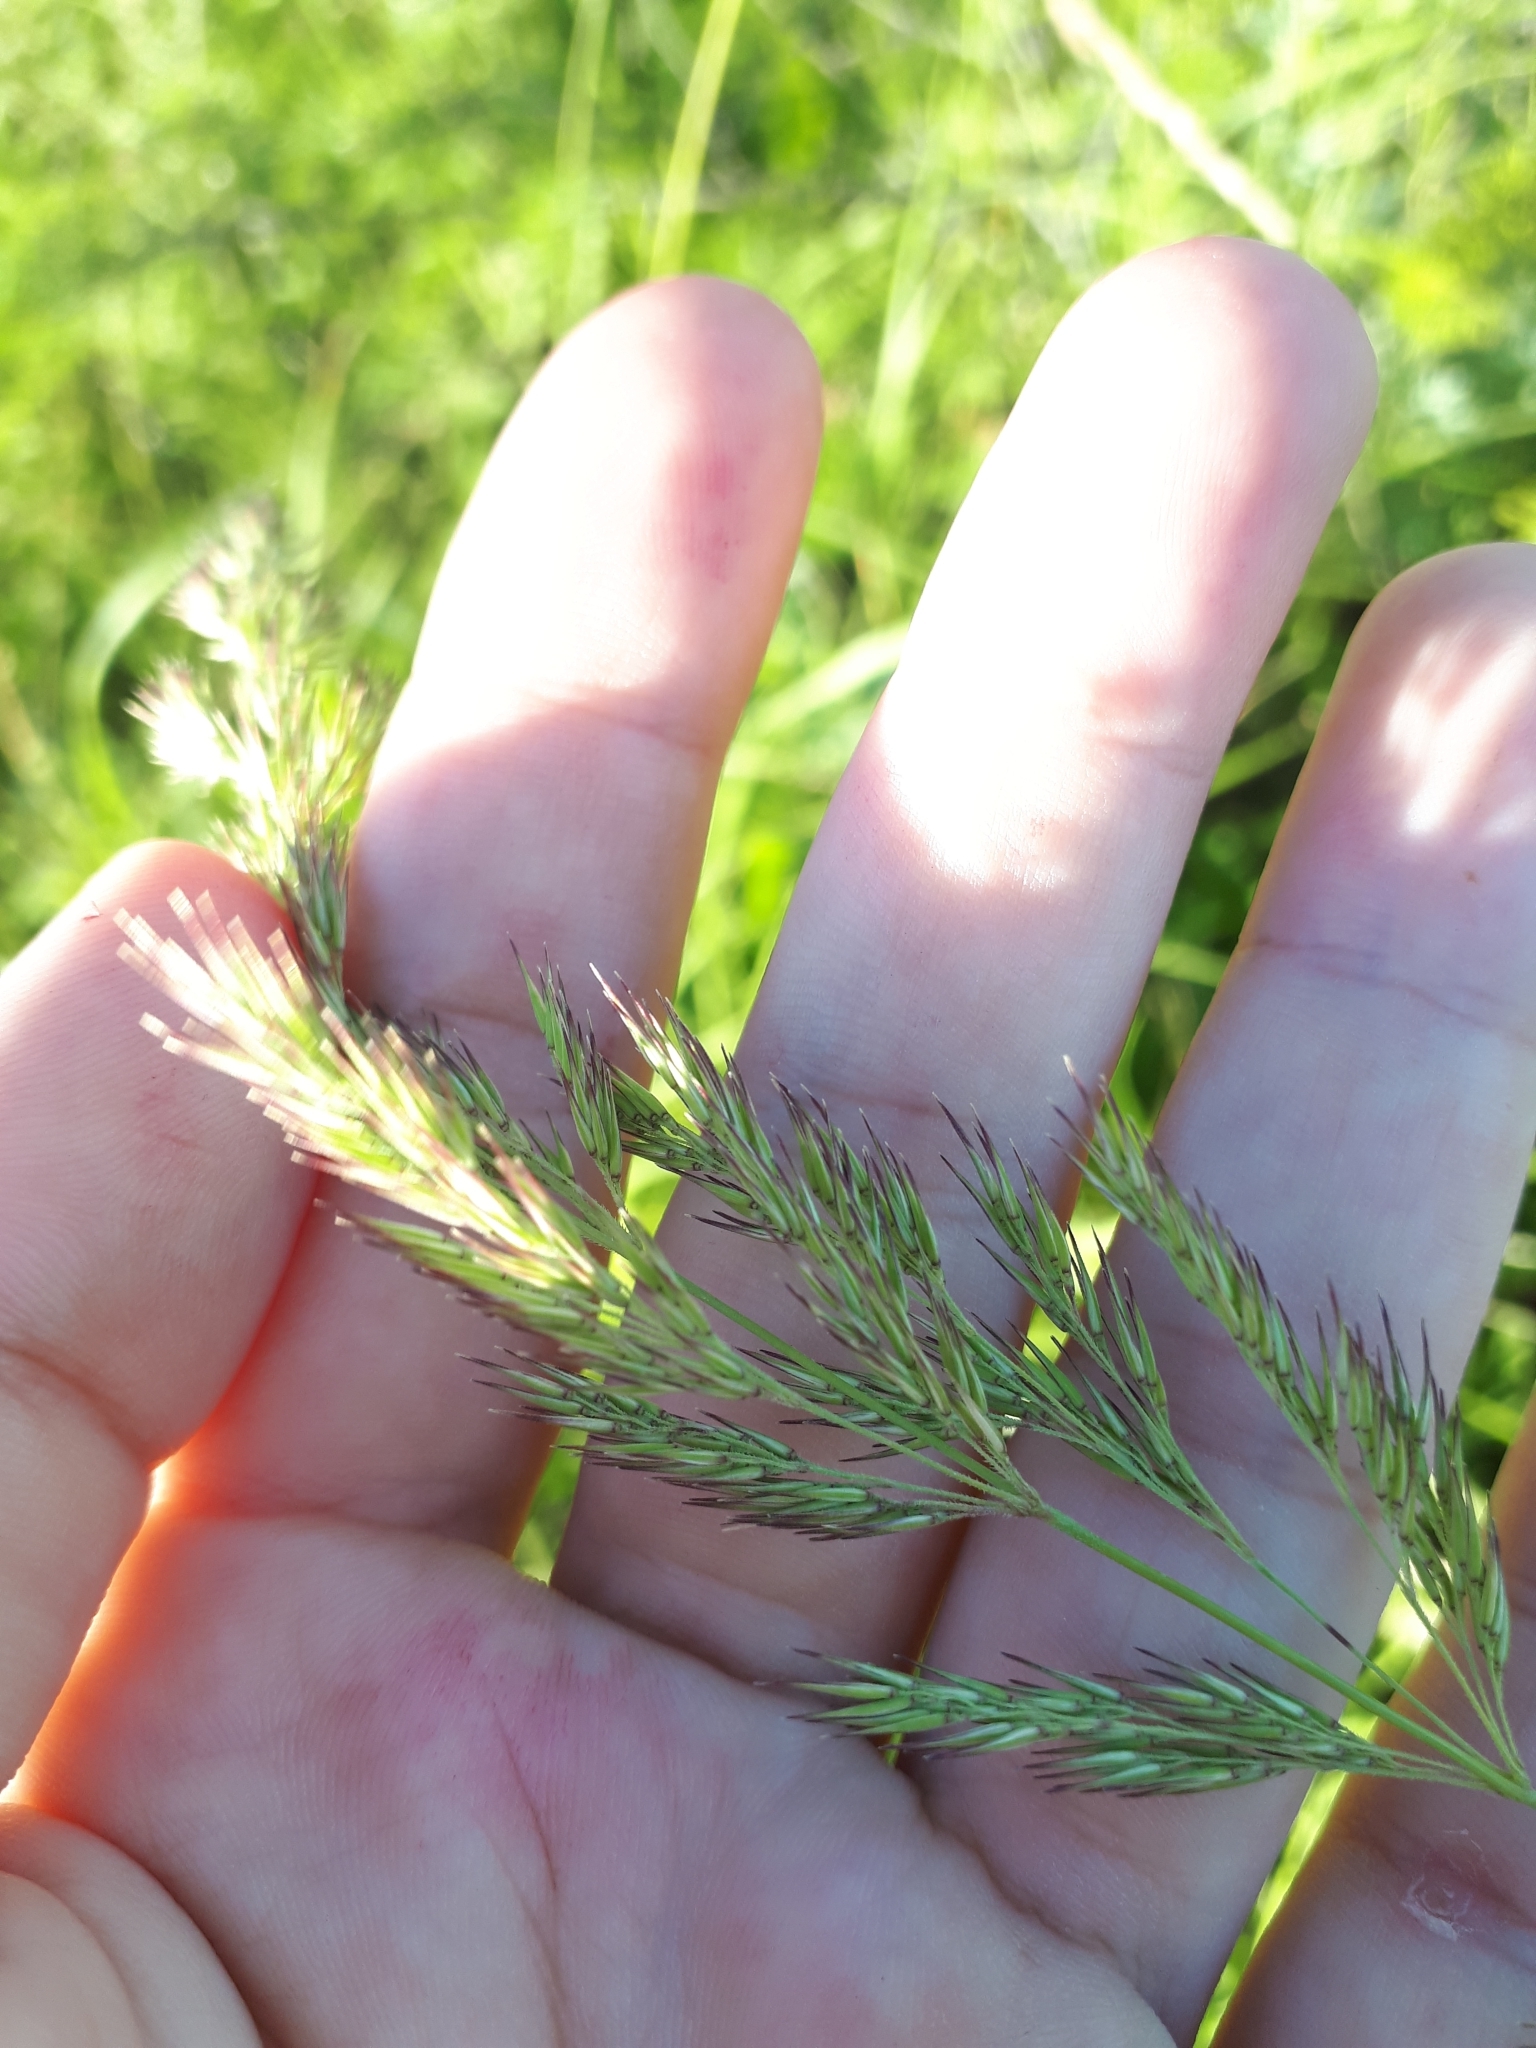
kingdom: Plantae
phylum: Tracheophyta
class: Liliopsida
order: Poales
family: Poaceae
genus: Calamagrostis
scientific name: Calamagrostis epigejos
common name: Wood small-reed
